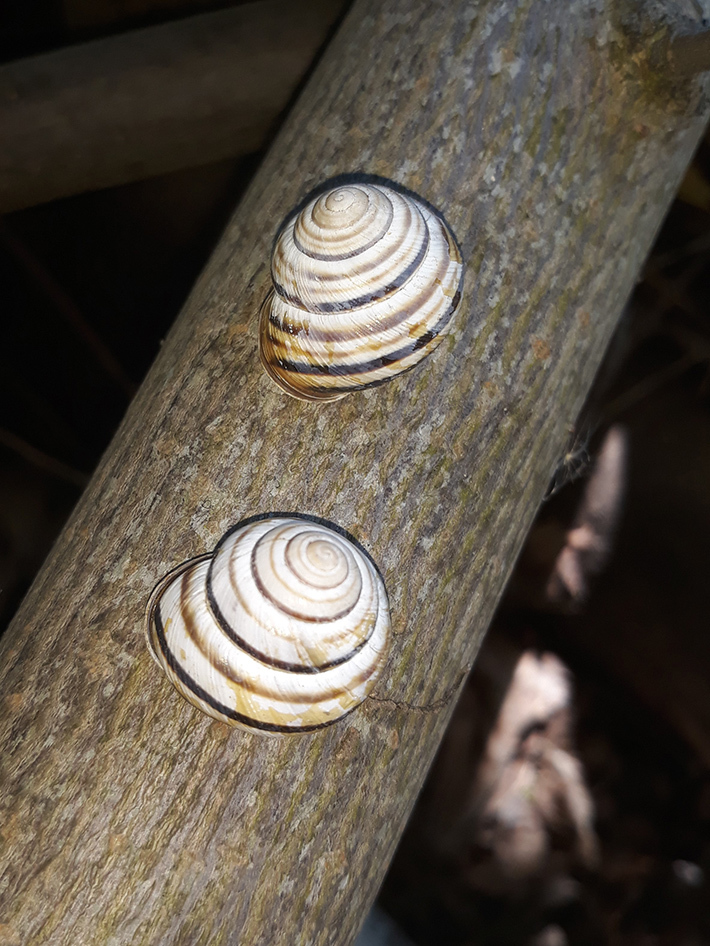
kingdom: Animalia
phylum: Mollusca
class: Gastropoda
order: Stylommatophora
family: Helicidae
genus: Caucasotachea
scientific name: Caucasotachea vindobonensis
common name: European helicid land snail
